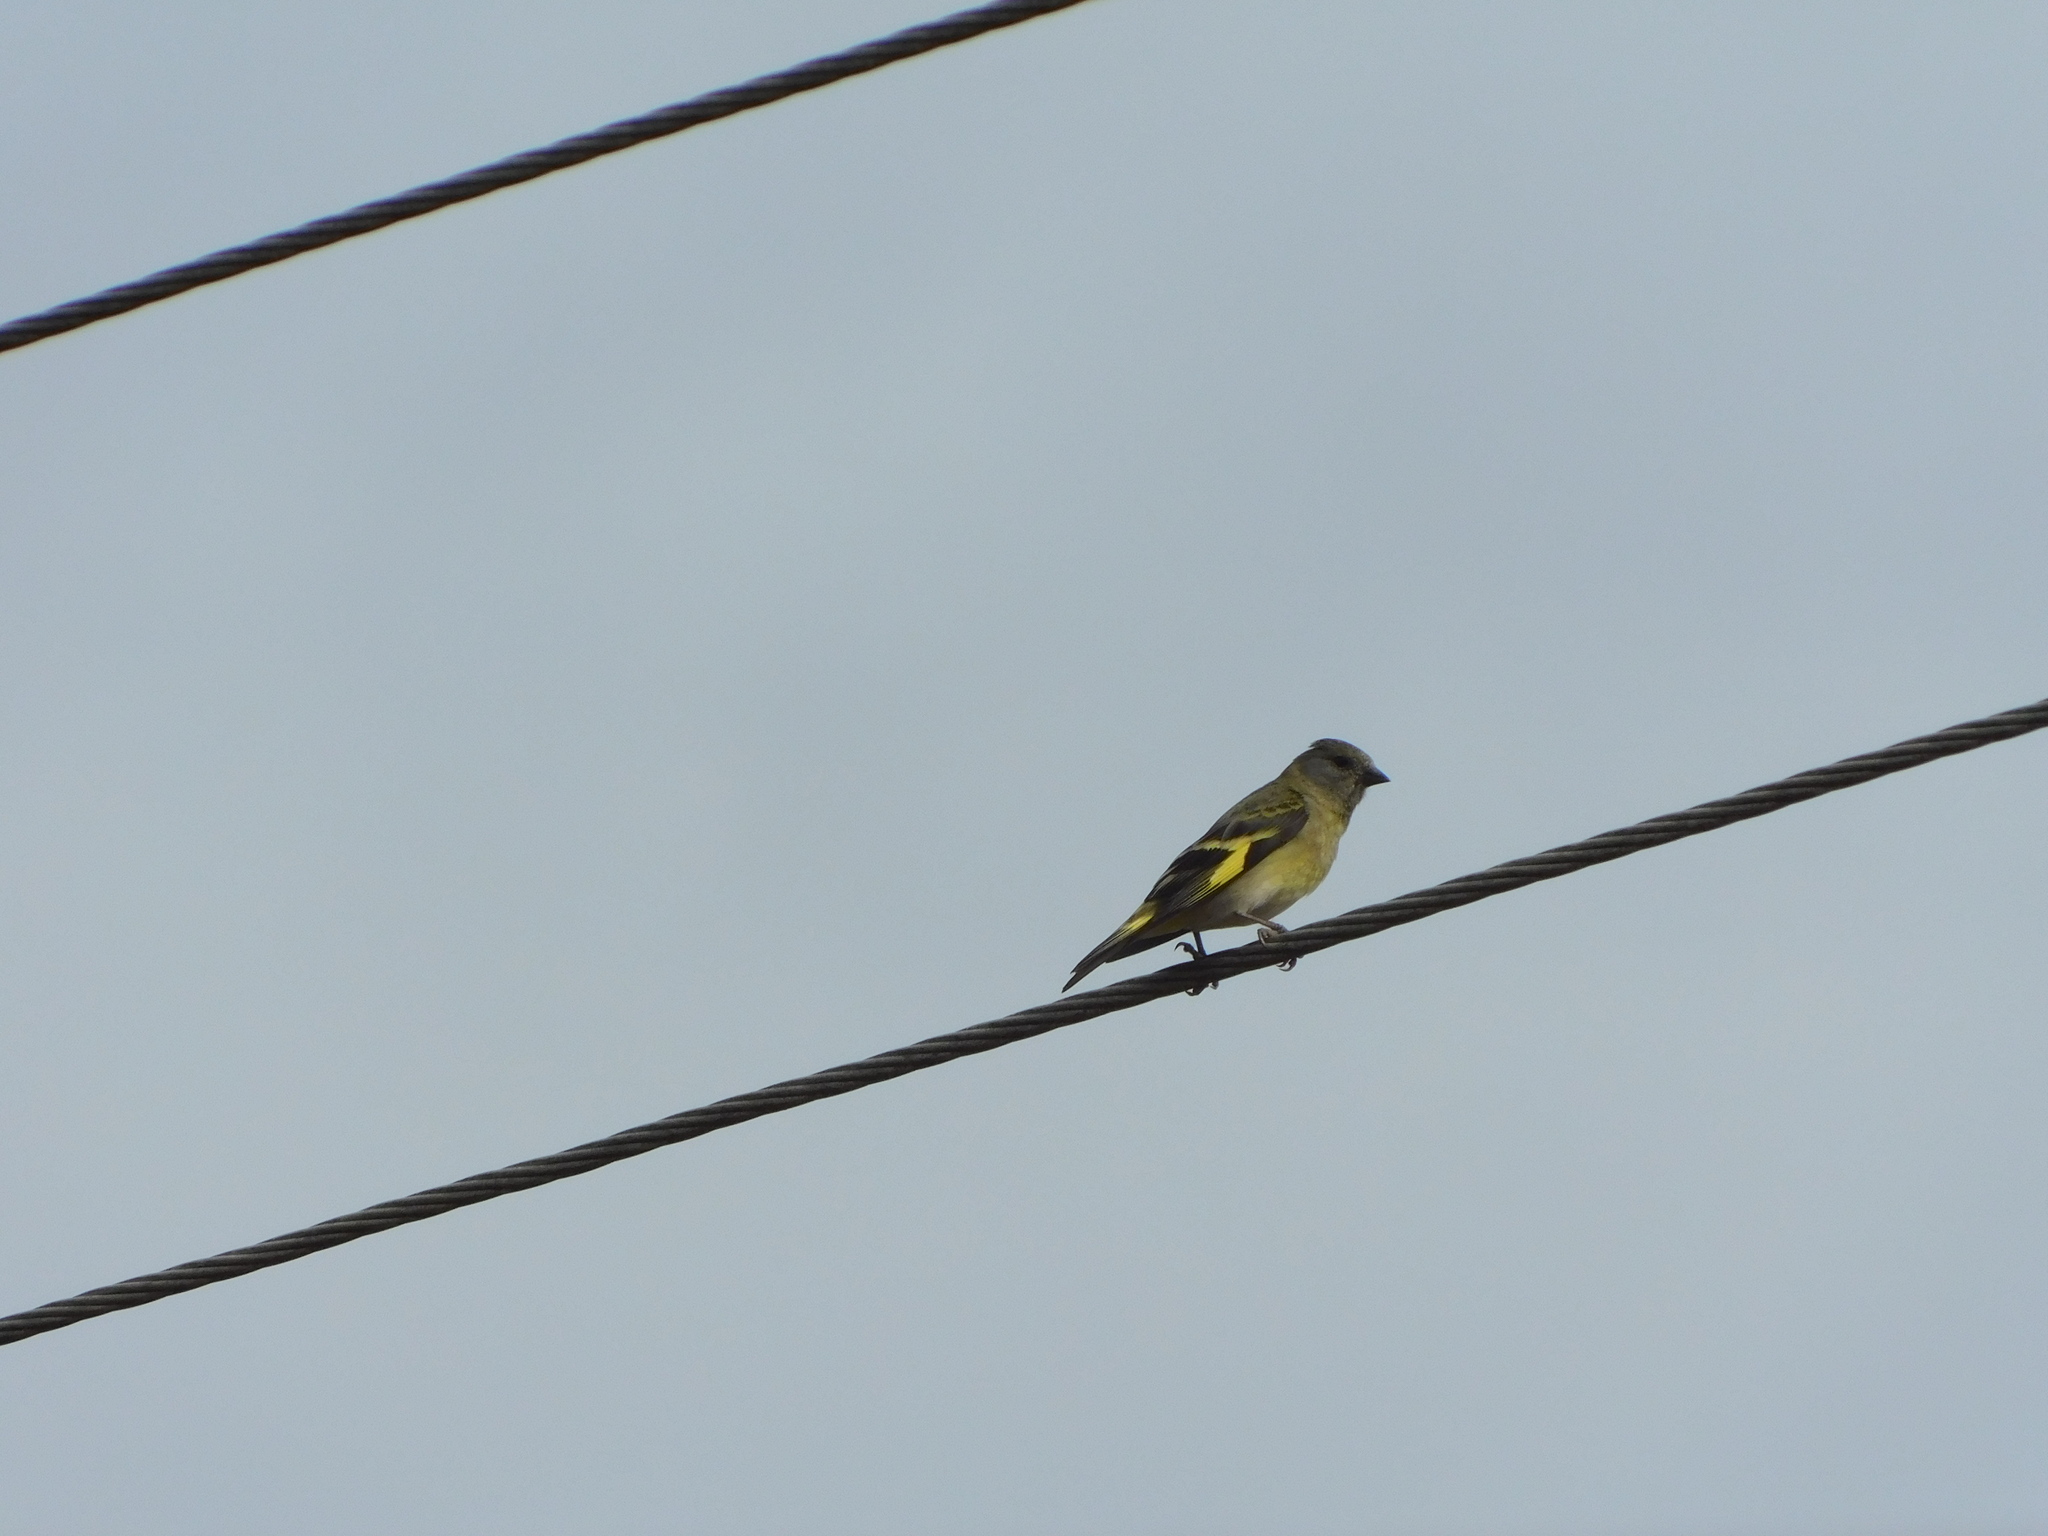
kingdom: Animalia
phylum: Chordata
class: Aves
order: Passeriformes
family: Fringillidae
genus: Spinus
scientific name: Spinus magellanicus
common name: Hooded siskin
